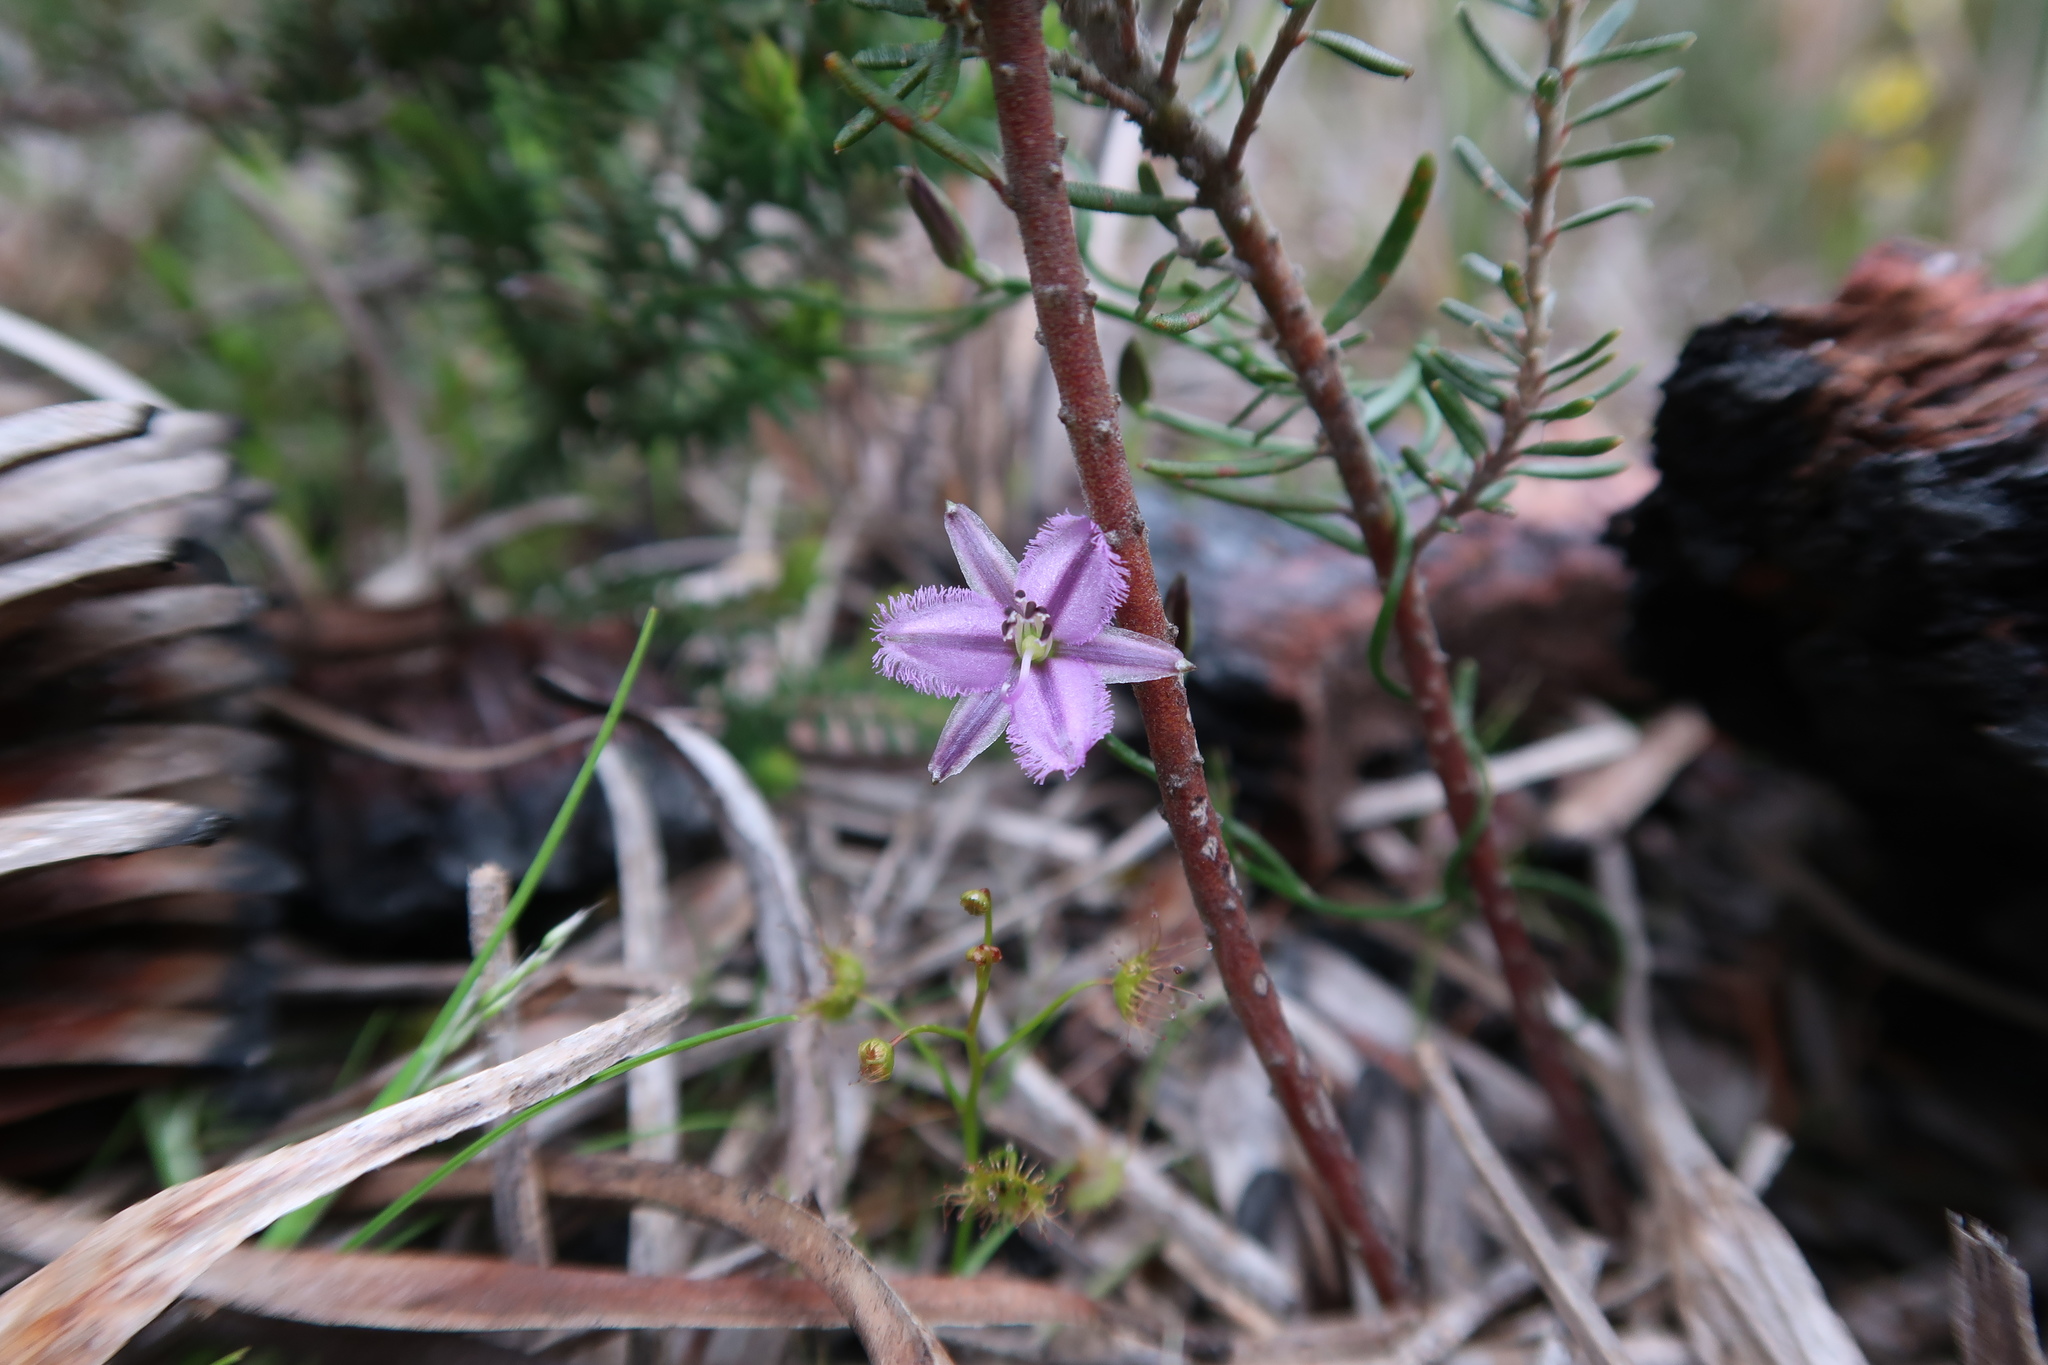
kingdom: Plantae
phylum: Tracheophyta
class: Liliopsida
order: Asparagales
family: Asparagaceae
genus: Thysanotus
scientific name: Thysanotus patersonii
